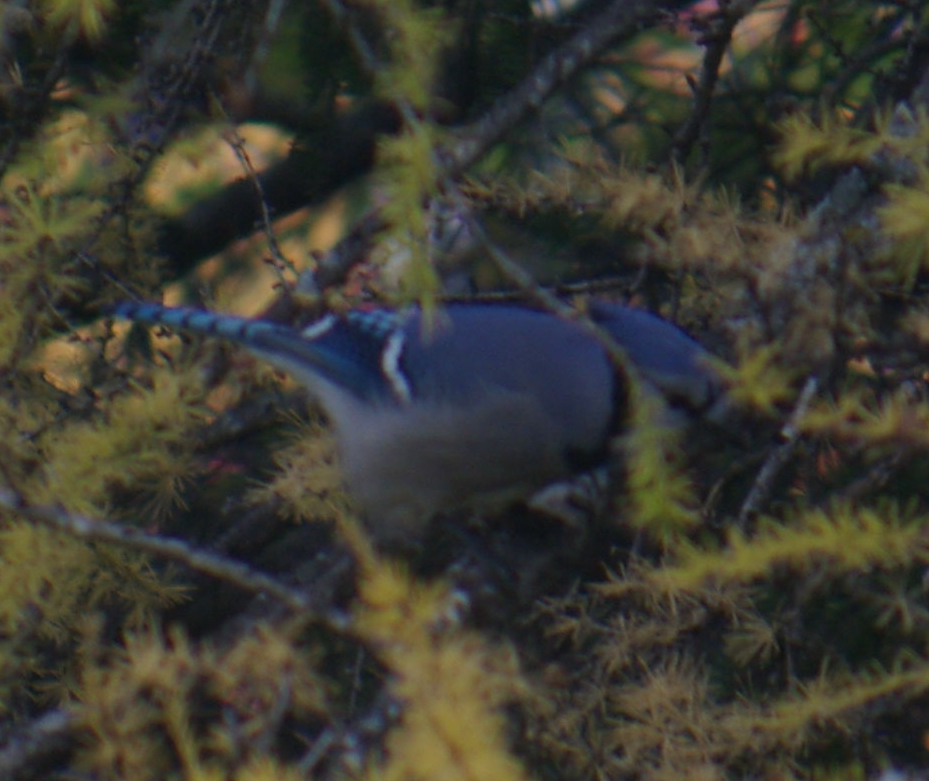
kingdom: Animalia
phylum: Chordata
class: Aves
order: Passeriformes
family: Corvidae
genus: Cyanocitta
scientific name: Cyanocitta cristata
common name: Blue jay
